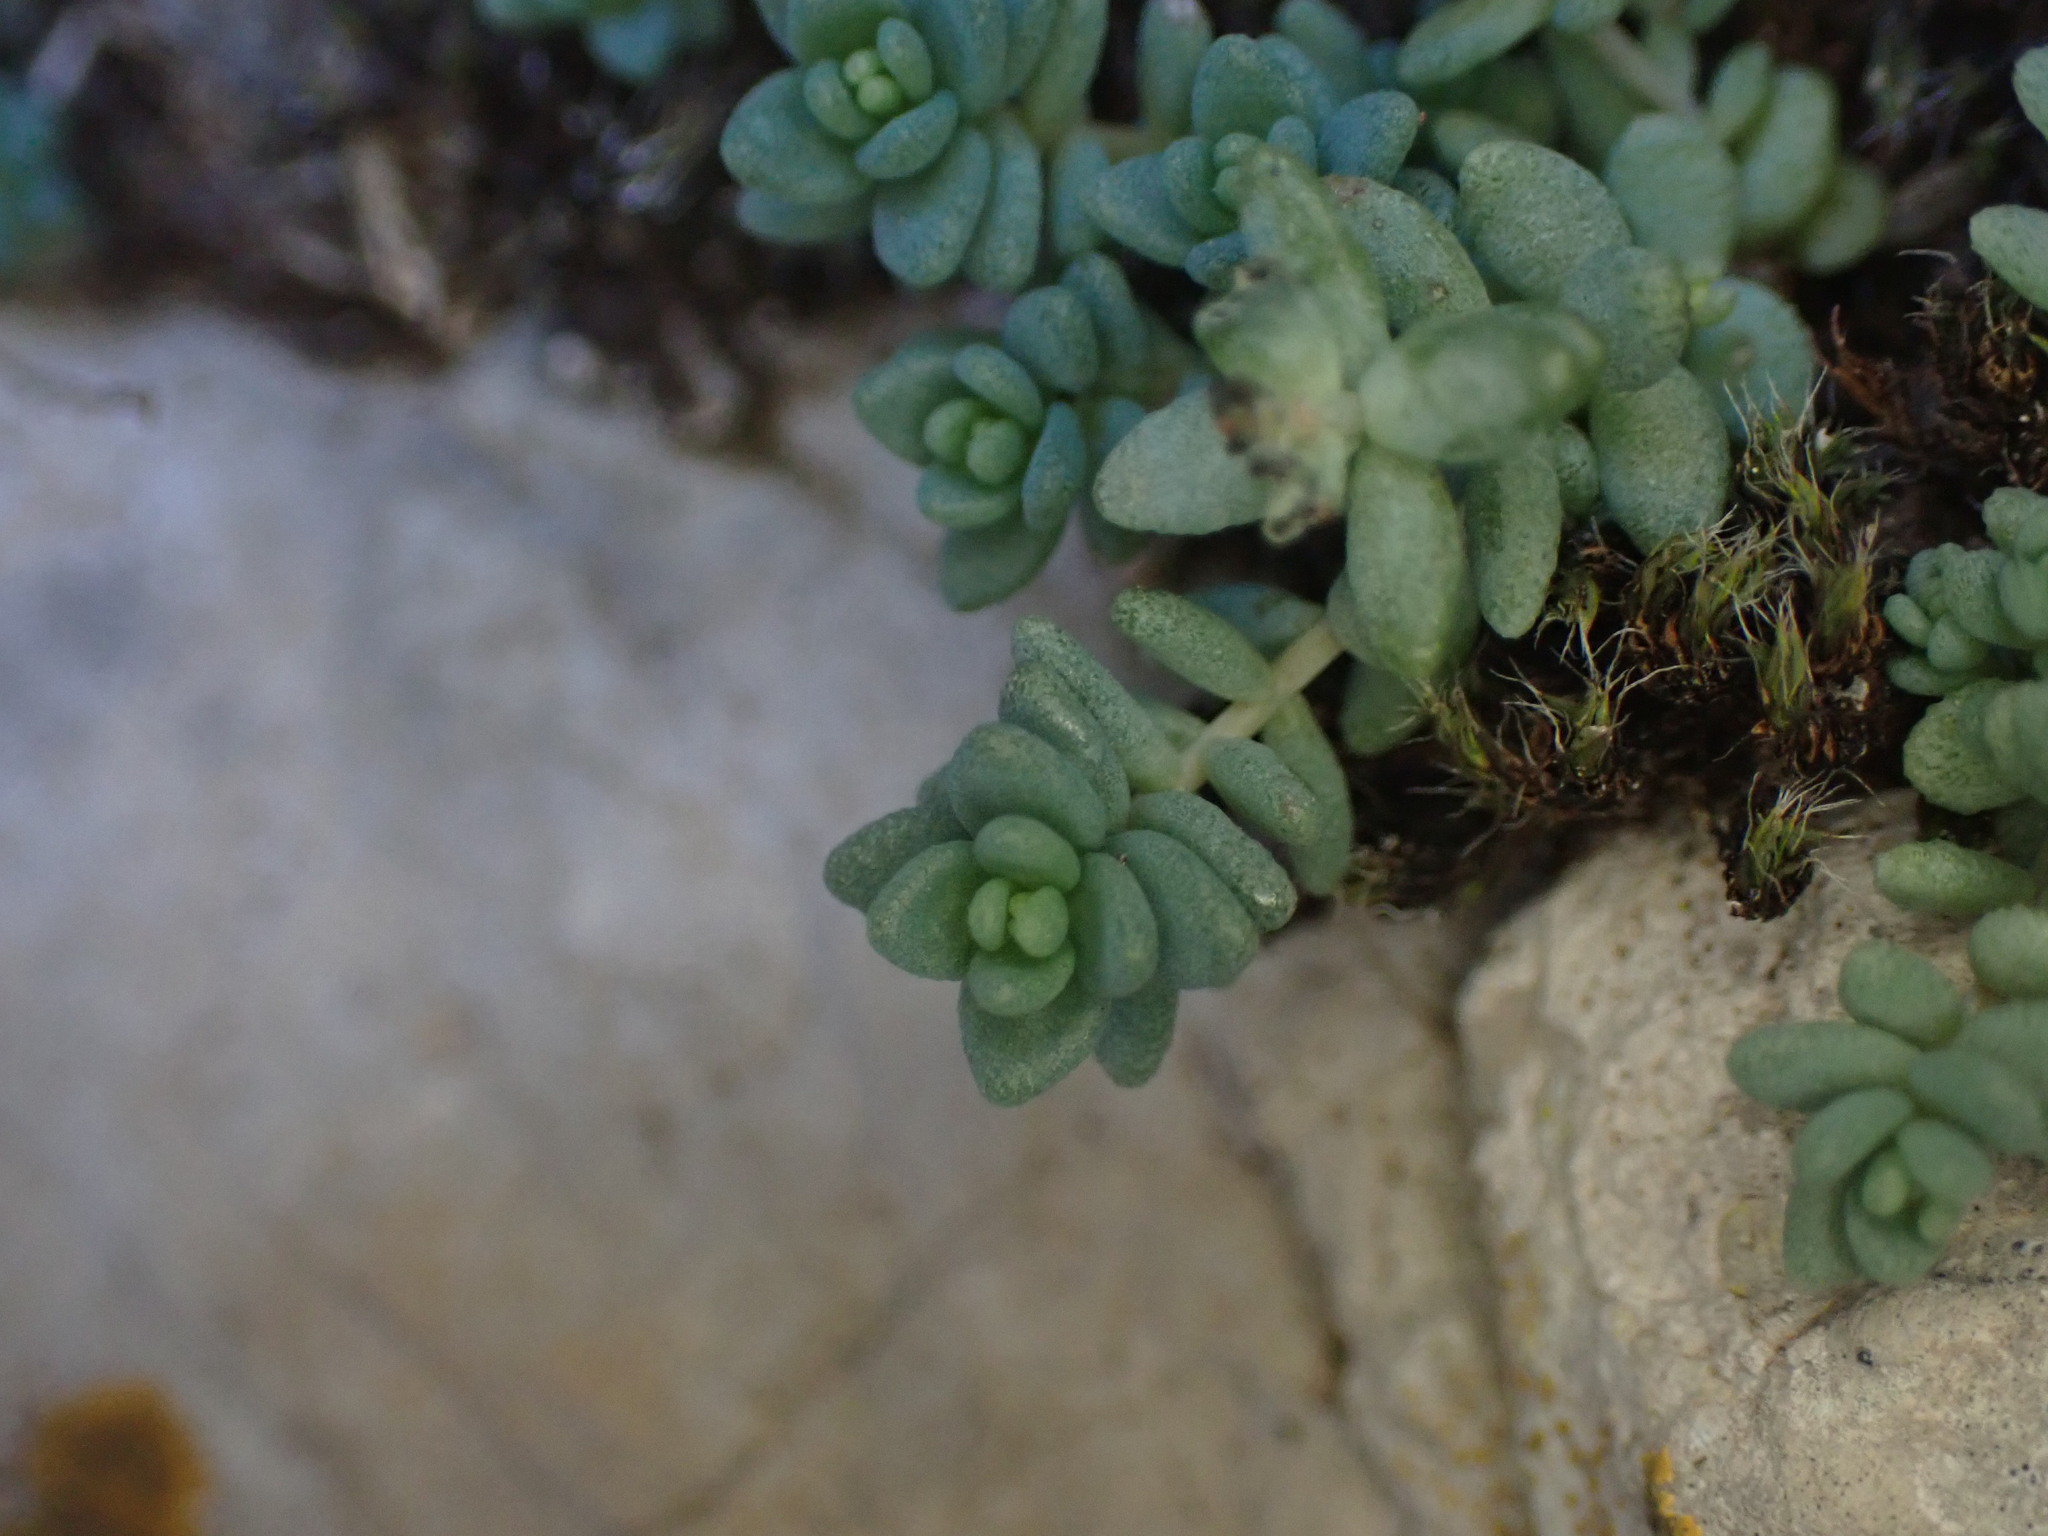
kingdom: Plantae
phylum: Tracheophyta
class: Magnoliopsida
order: Saxifragales
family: Crassulaceae
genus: Sedum
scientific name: Sedum dasyphyllum
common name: Thick-leaf stonecrop
